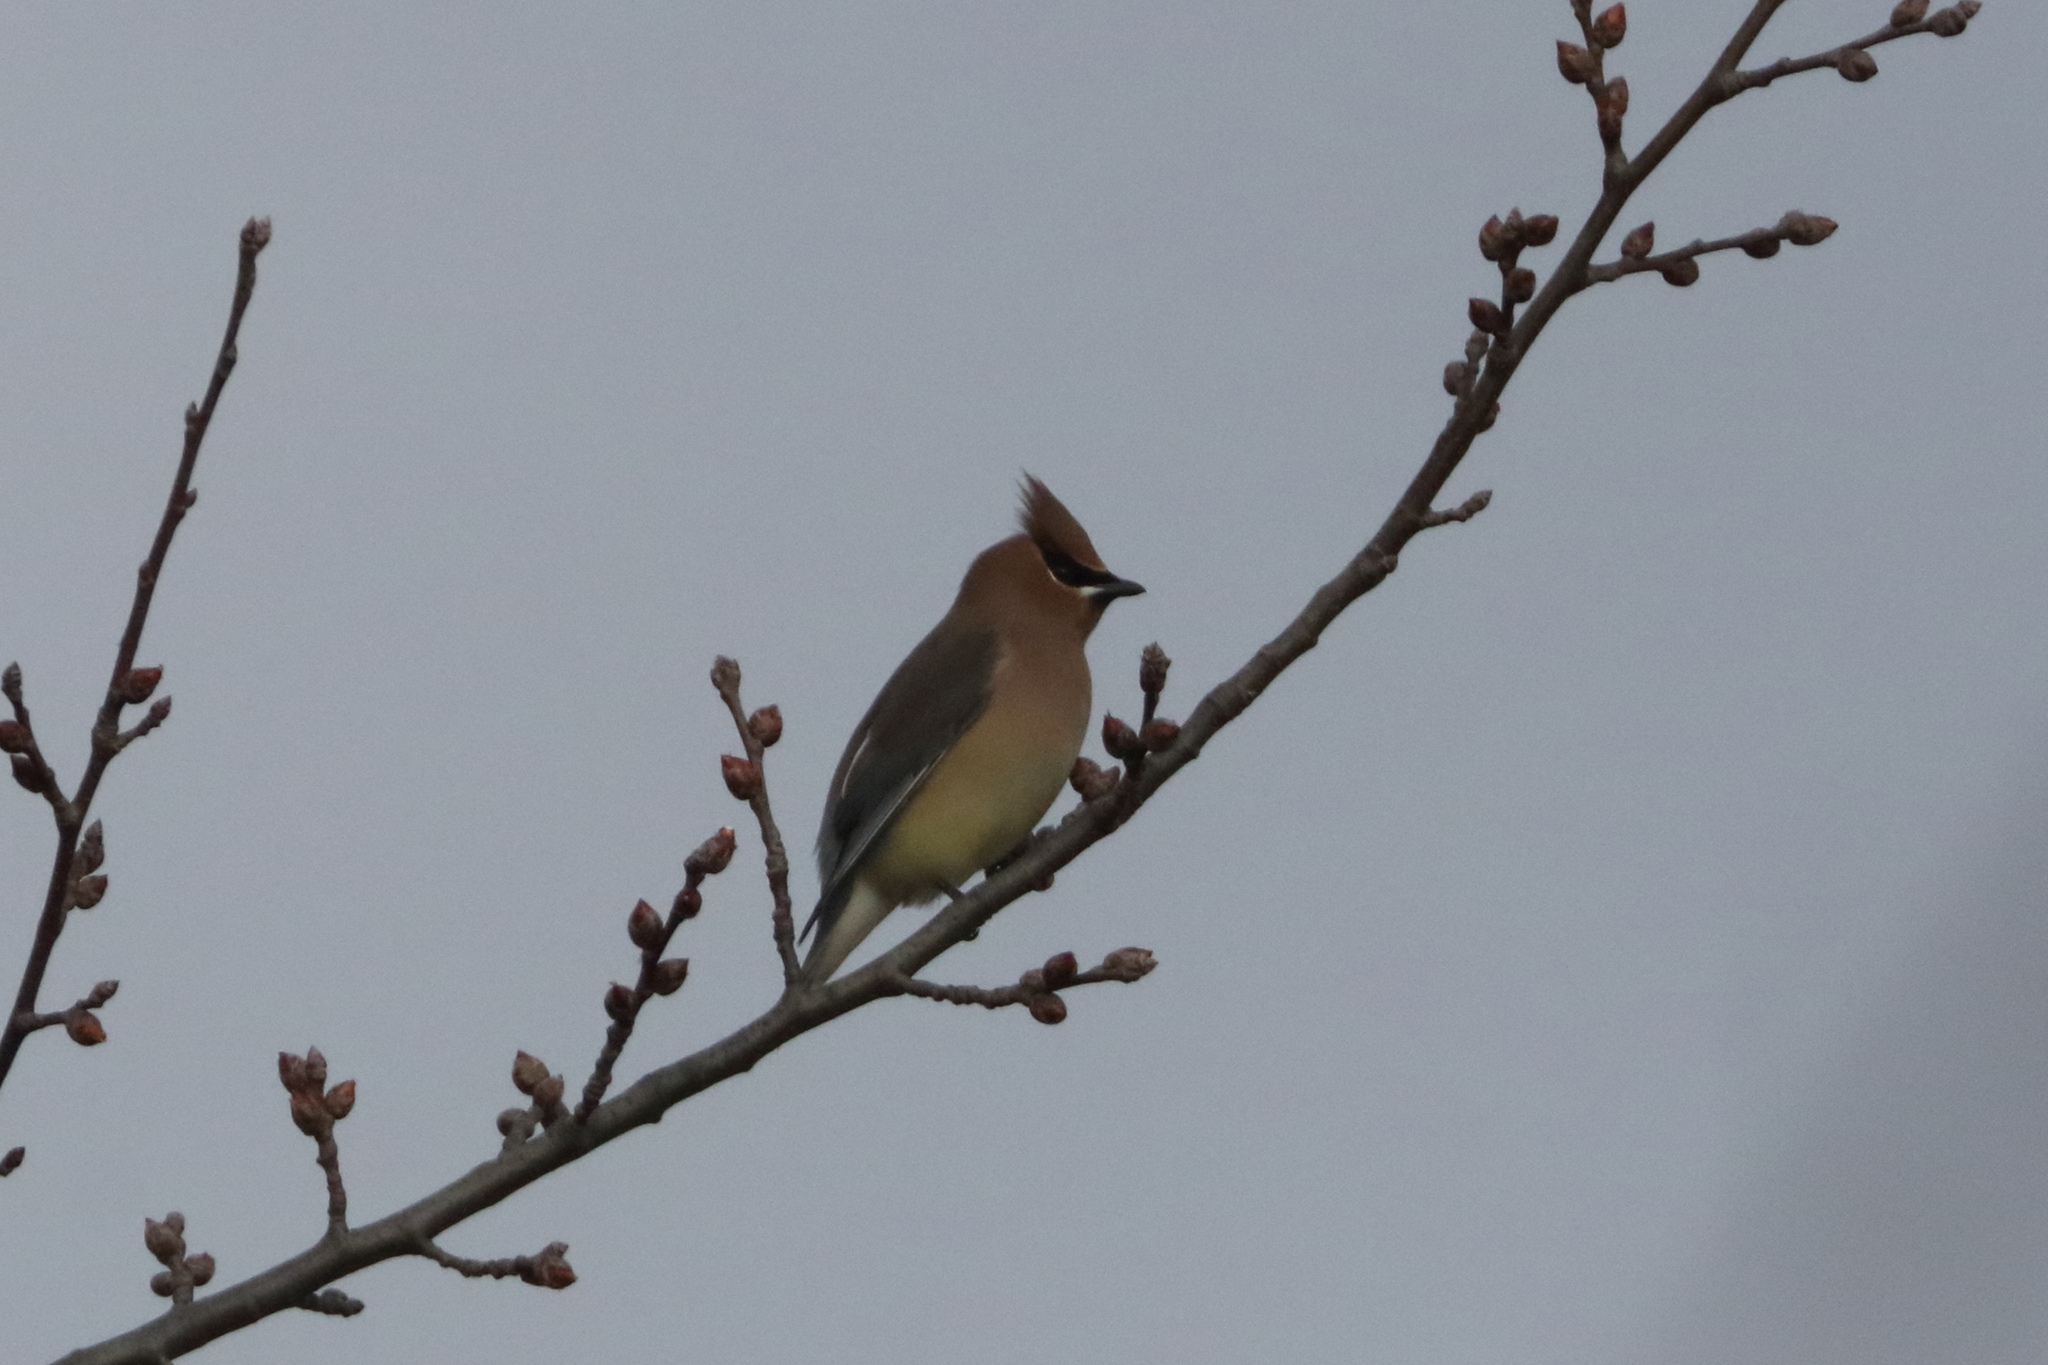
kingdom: Animalia
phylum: Chordata
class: Aves
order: Passeriformes
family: Bombycillidae
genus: Bombycilla
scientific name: Bombycilla cedrorum
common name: Cedar waxwing
